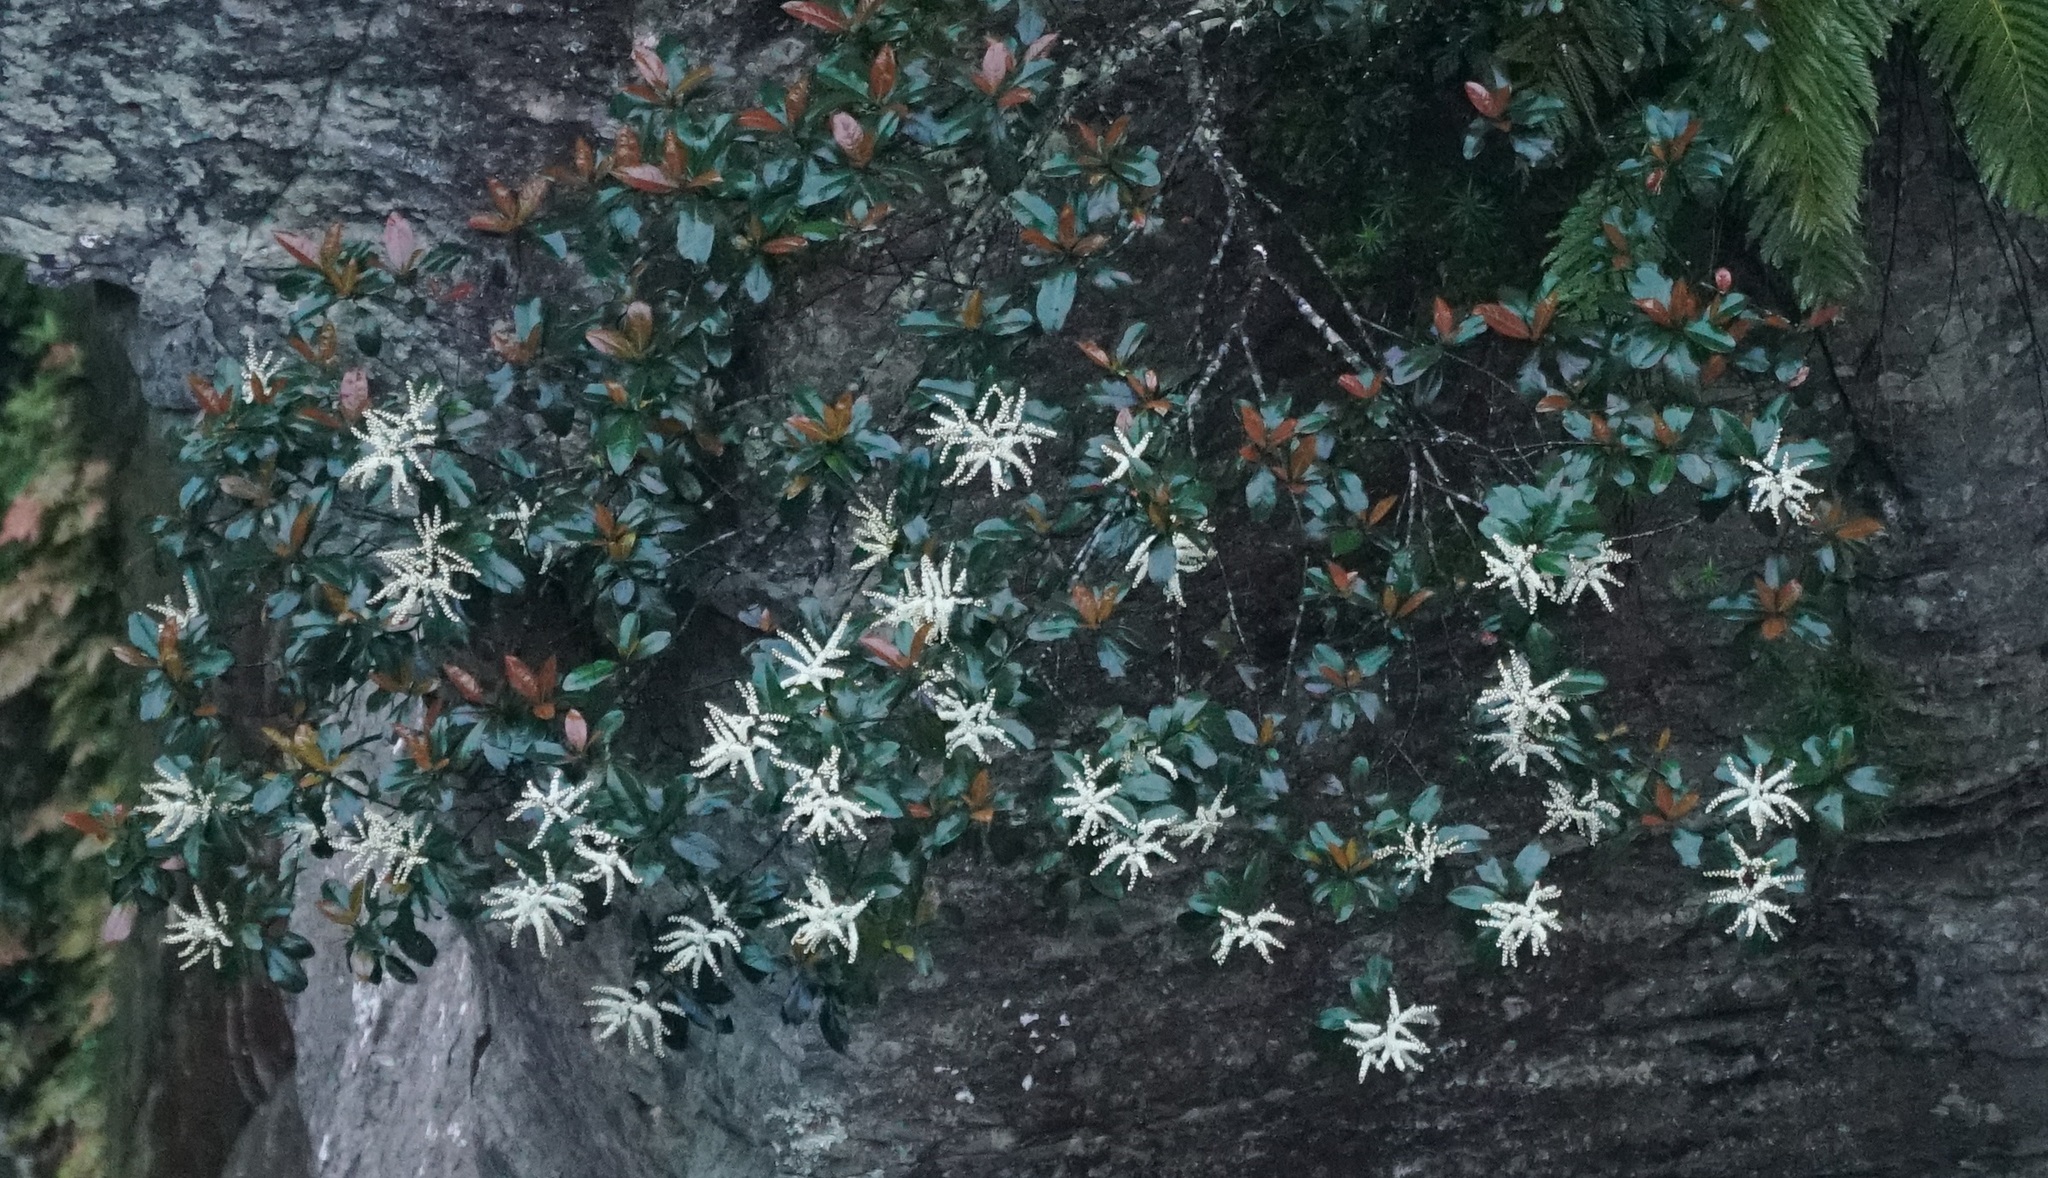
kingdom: Plantae
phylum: Tracheophyta
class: Magnoliopsida
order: Paracryphiales
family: Paracryphiaceae
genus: Quintinia
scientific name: Quintinia sieberi
